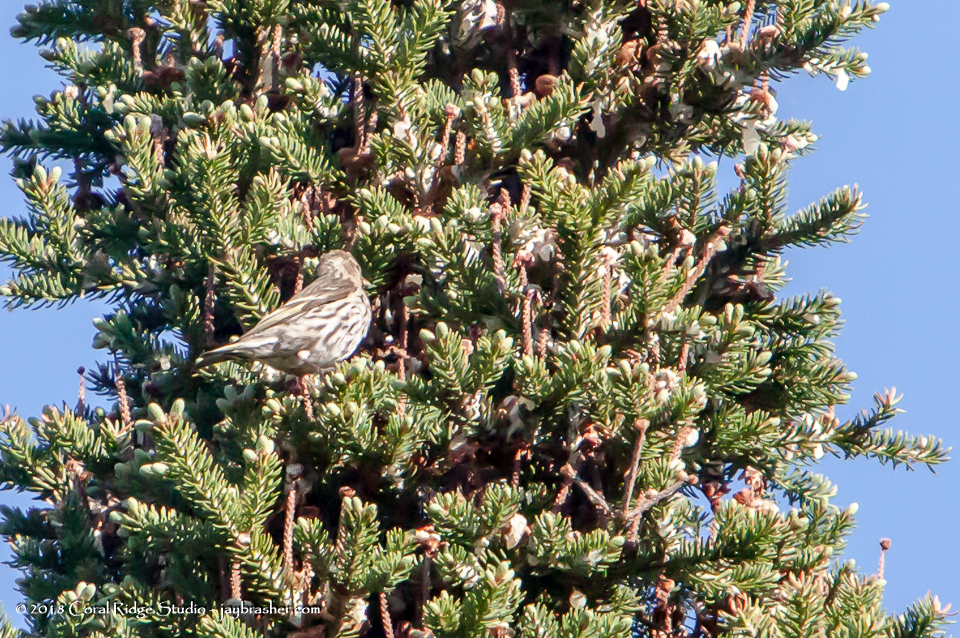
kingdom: Animalia
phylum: Chordata
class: Aves
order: Passeriformes
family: Fringillidae
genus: Spinus
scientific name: Spinus pinus
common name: Pine siskin
